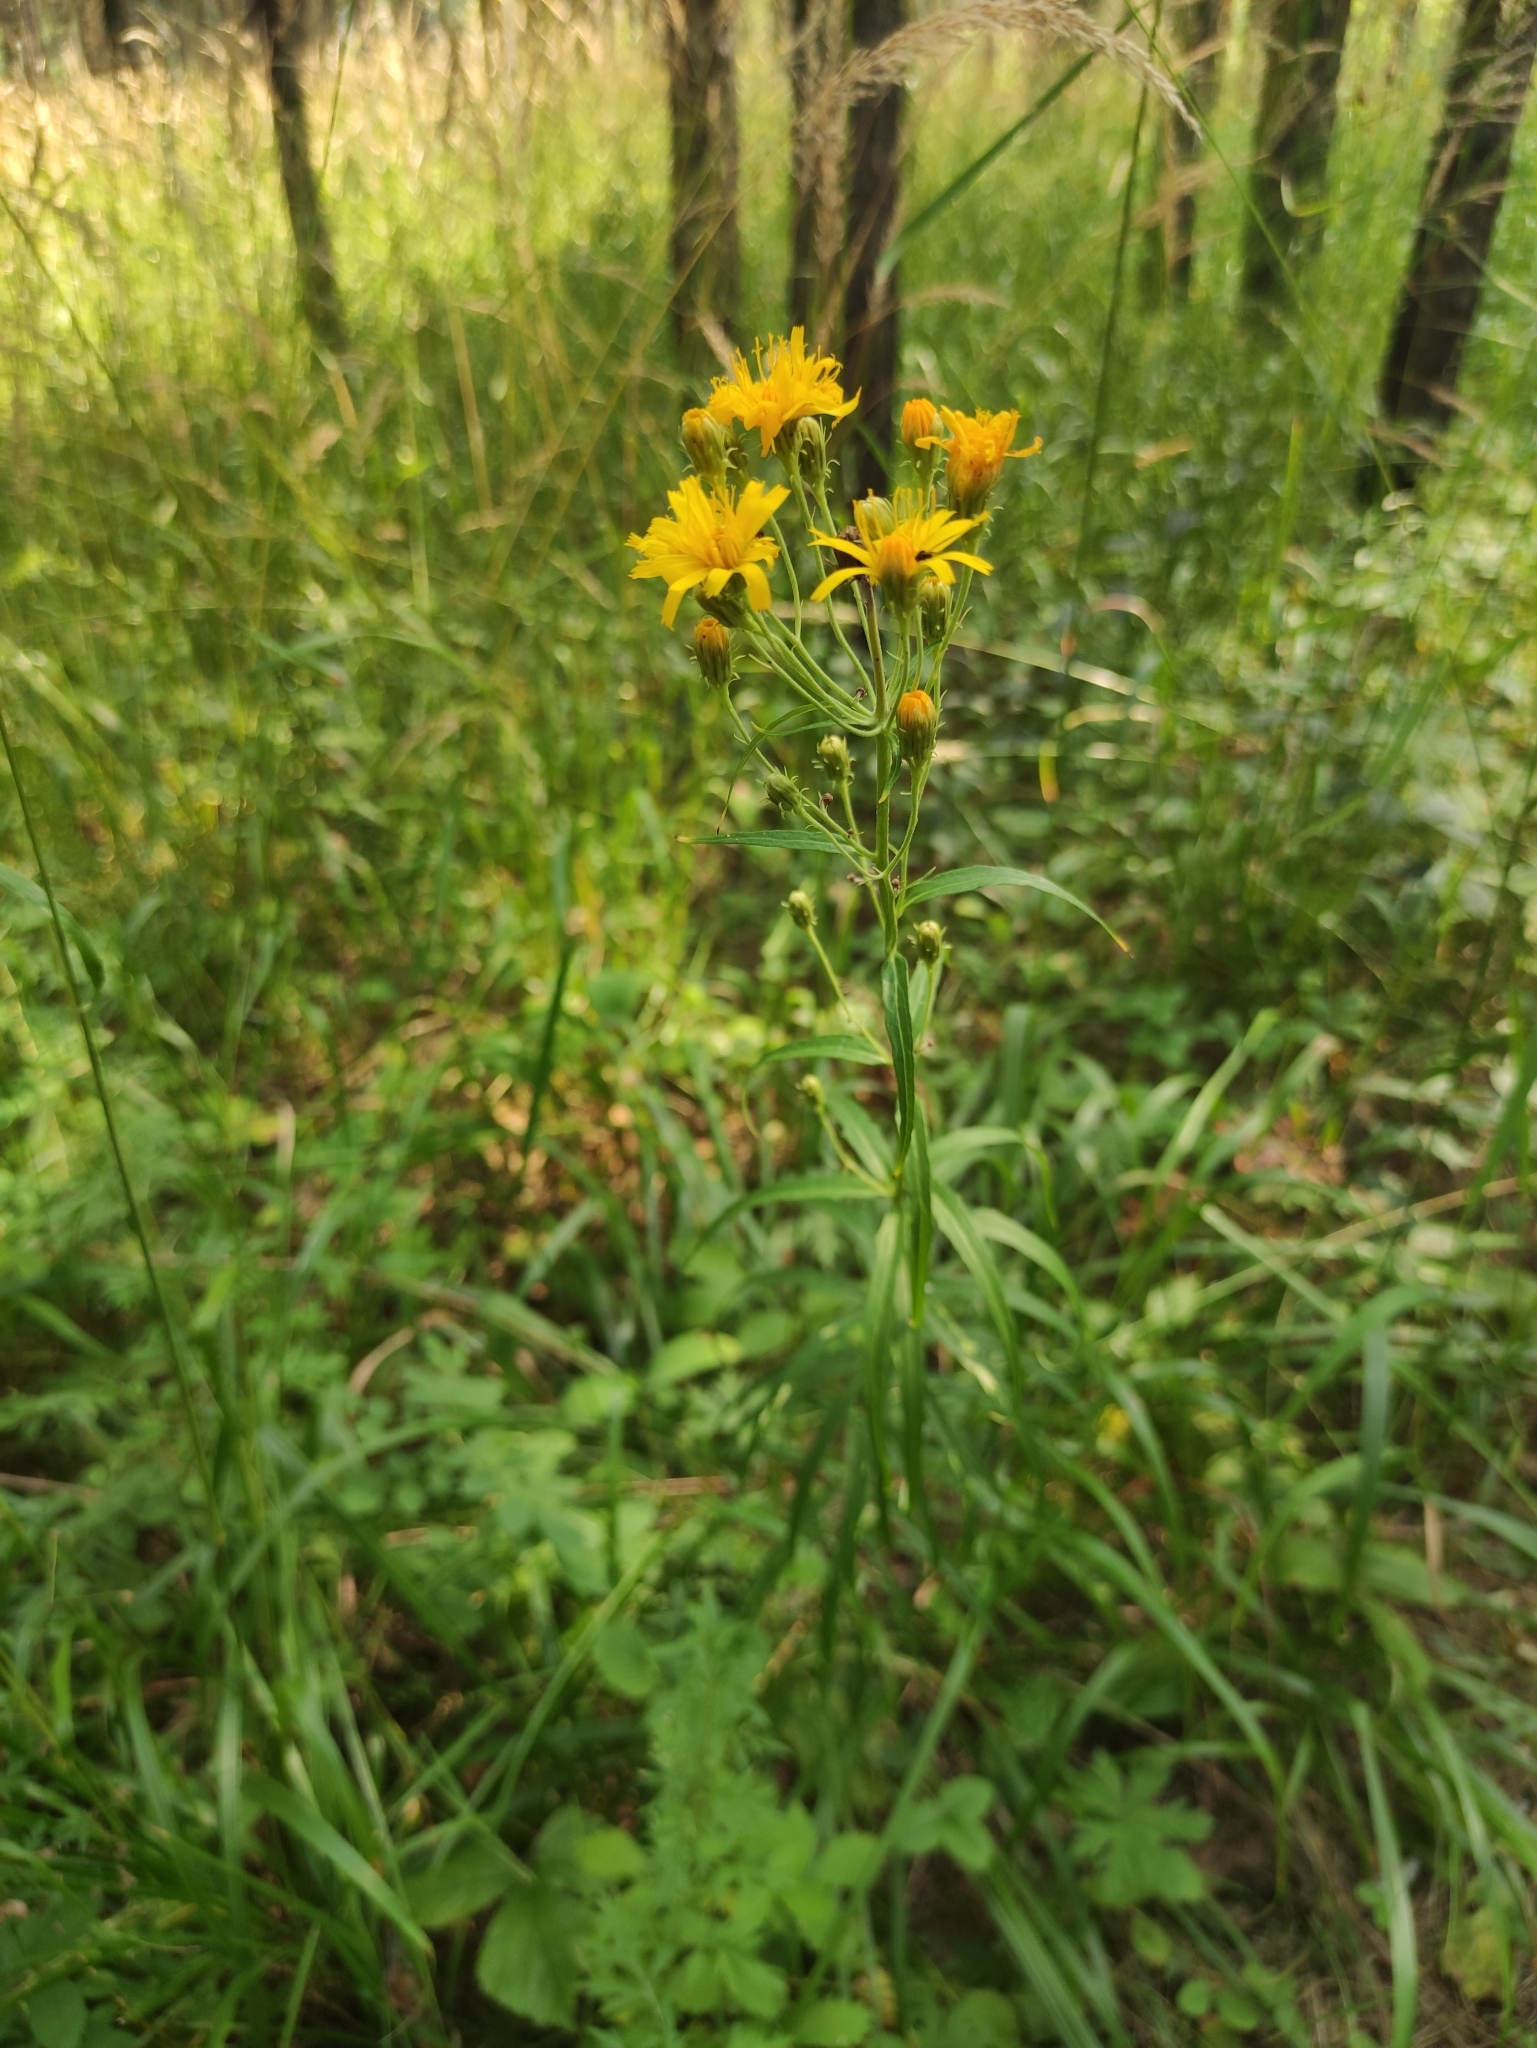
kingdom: Plantae
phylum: Tracheophyta
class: Magnoliopsida
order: Asterales
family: Asteraceae
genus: Hieracium
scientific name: Hieracium umbellatum
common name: Northern hawkweed
